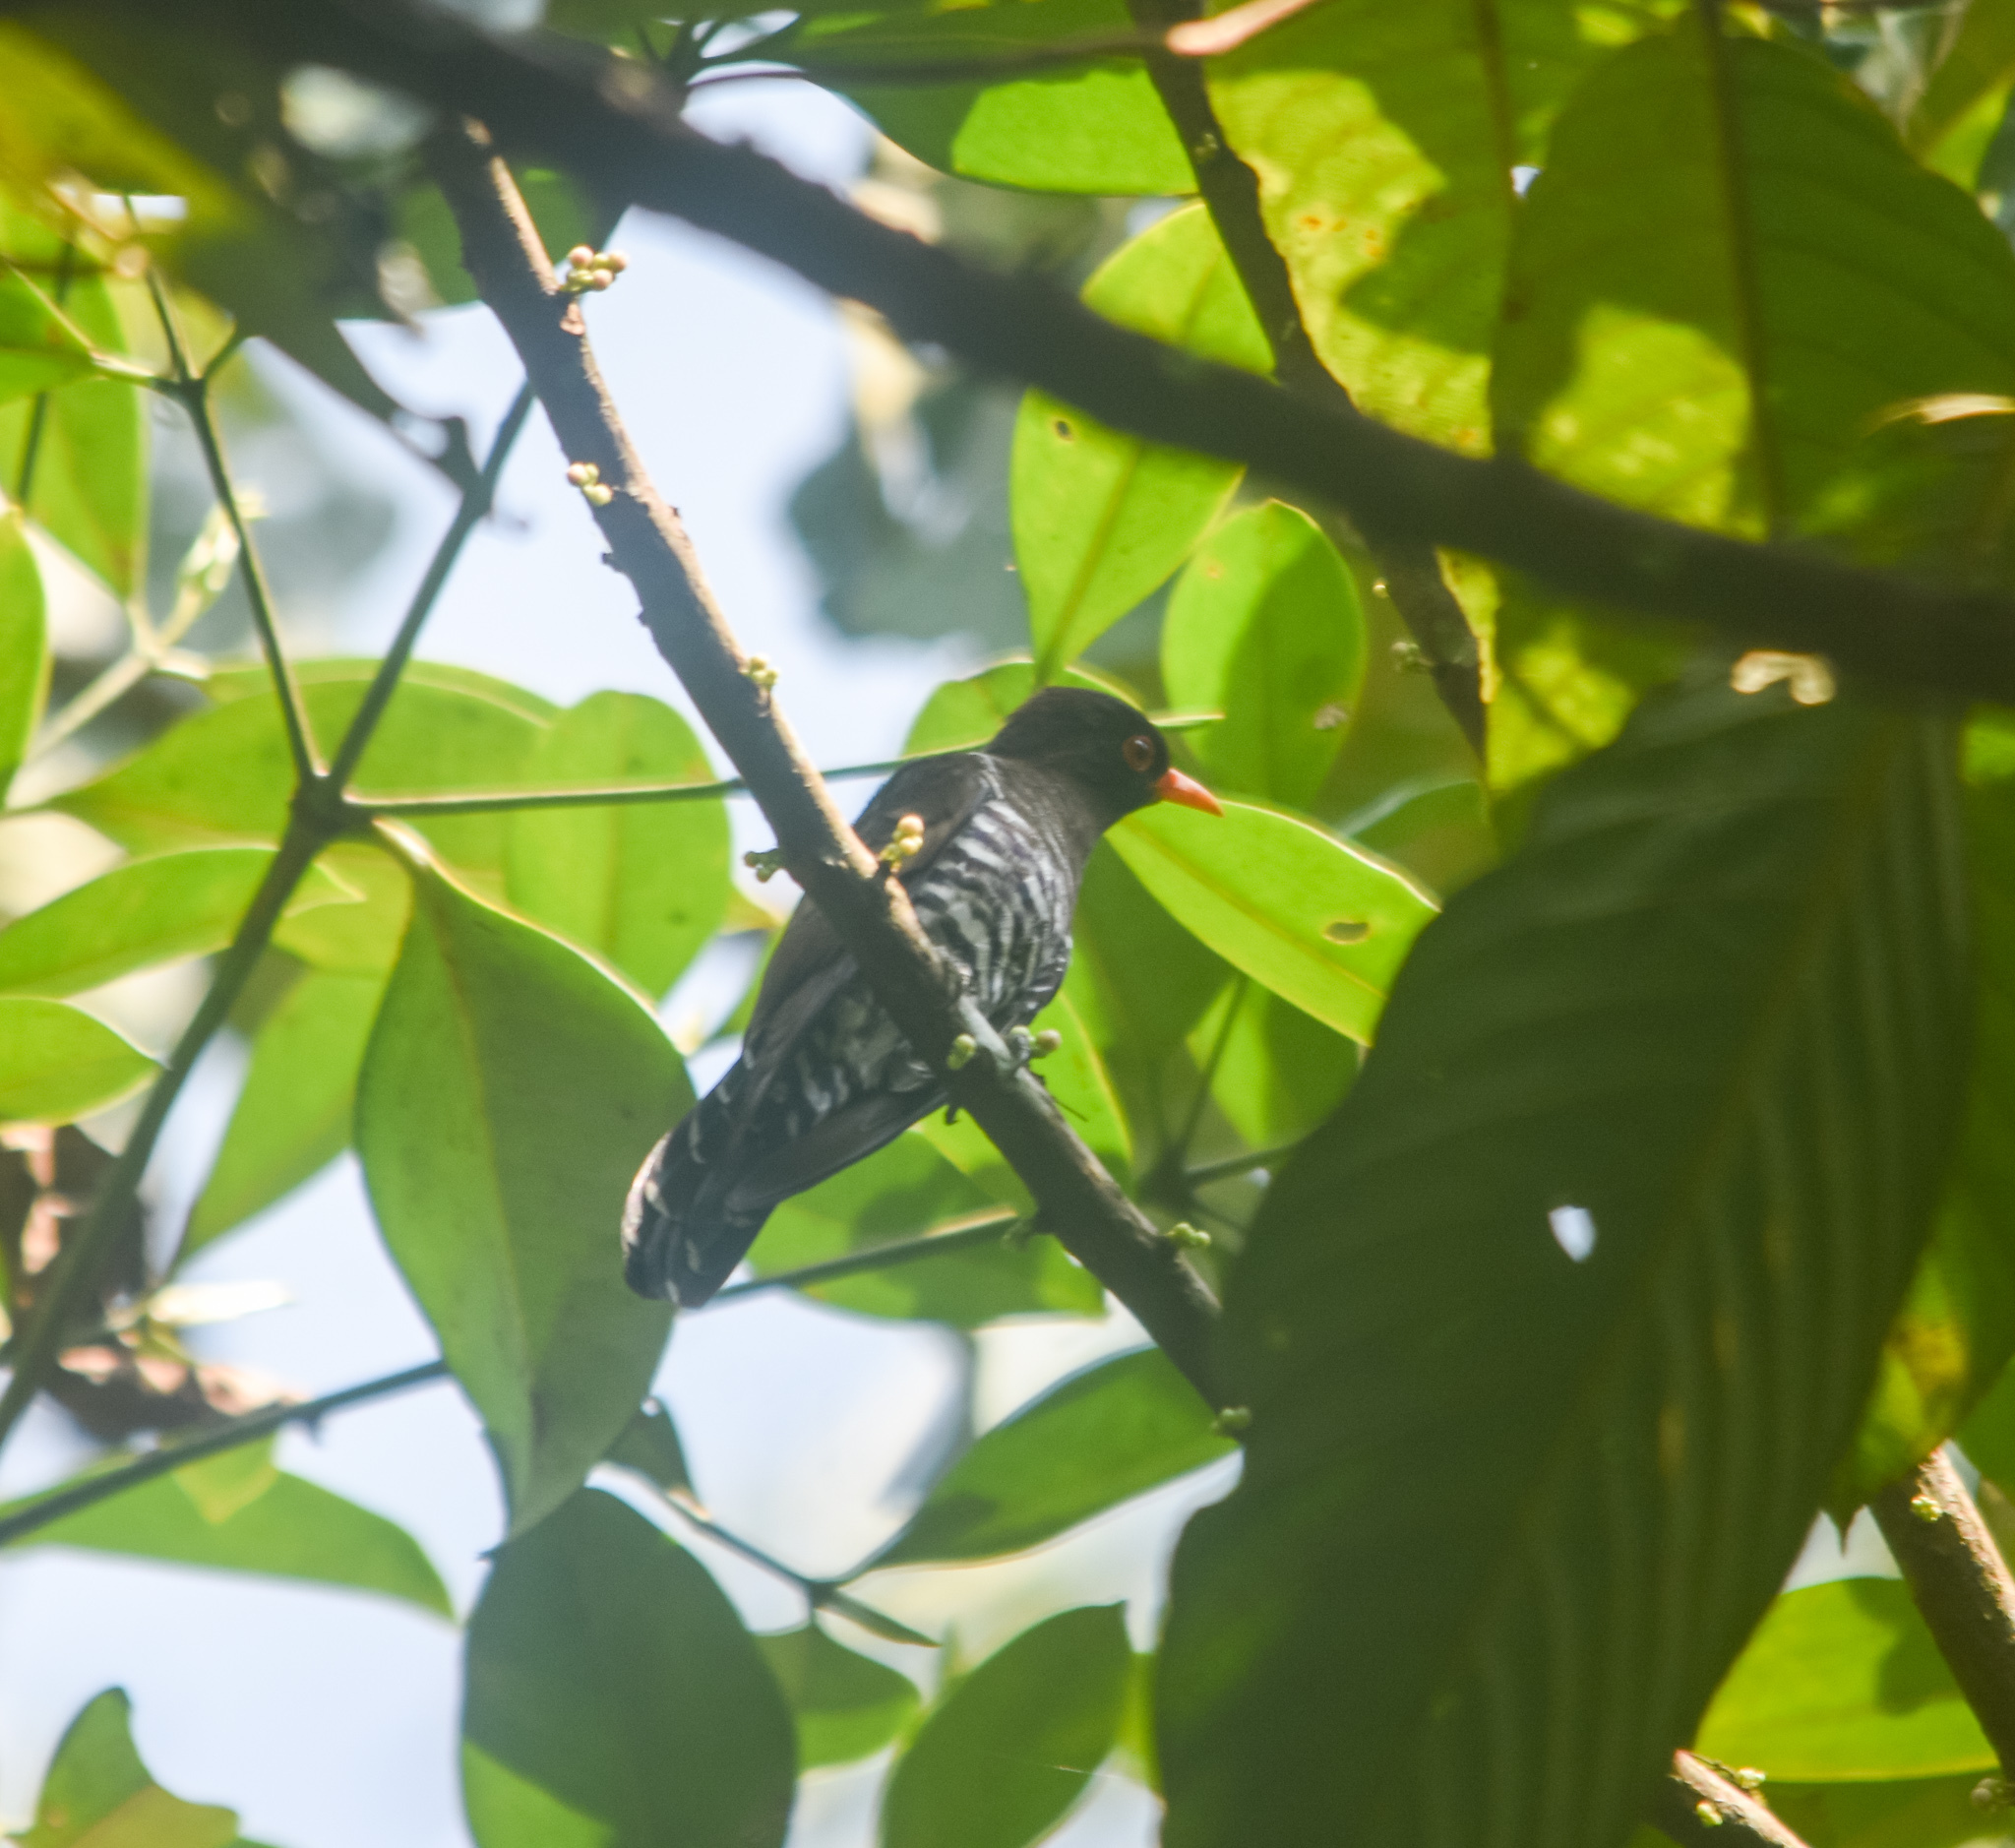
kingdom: Animalia
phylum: Chordata
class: Aves
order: Cuculiformes
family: Cuculidae
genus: Chrysococcyx
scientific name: Chrysococcyx xanthorhynchus
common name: Violet cuckoo
